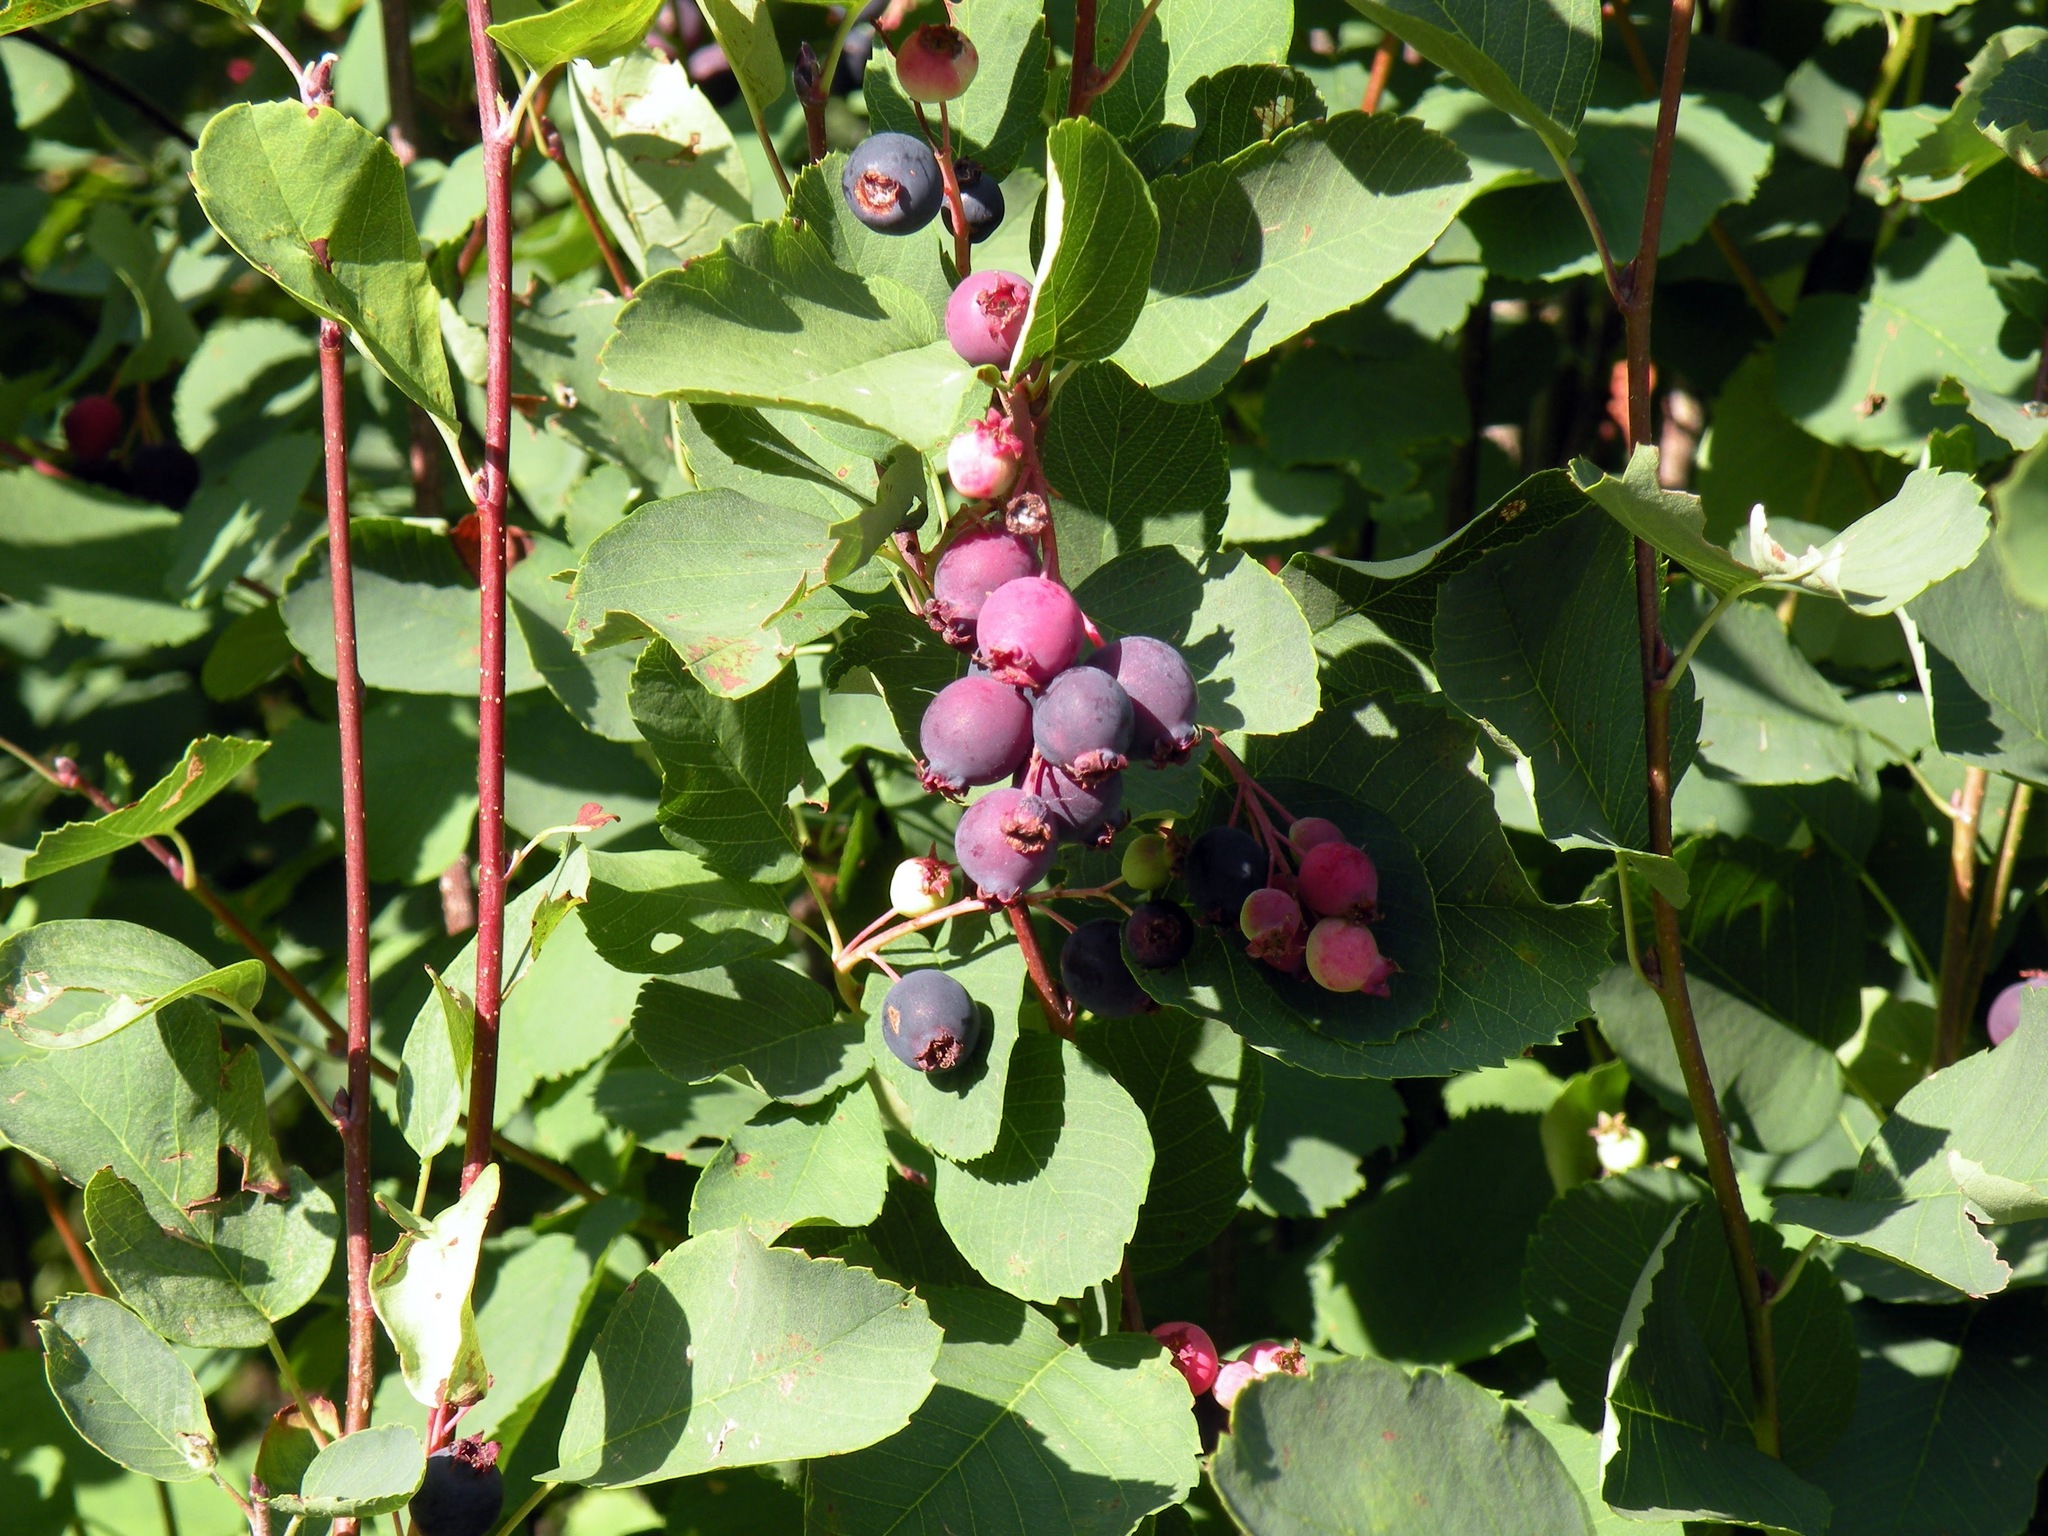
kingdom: Plantae
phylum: Tracheophyta
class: Magnoliopsida
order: Rosales
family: Rosaceae
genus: Amelanchier
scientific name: Amelanchier alnifolia
